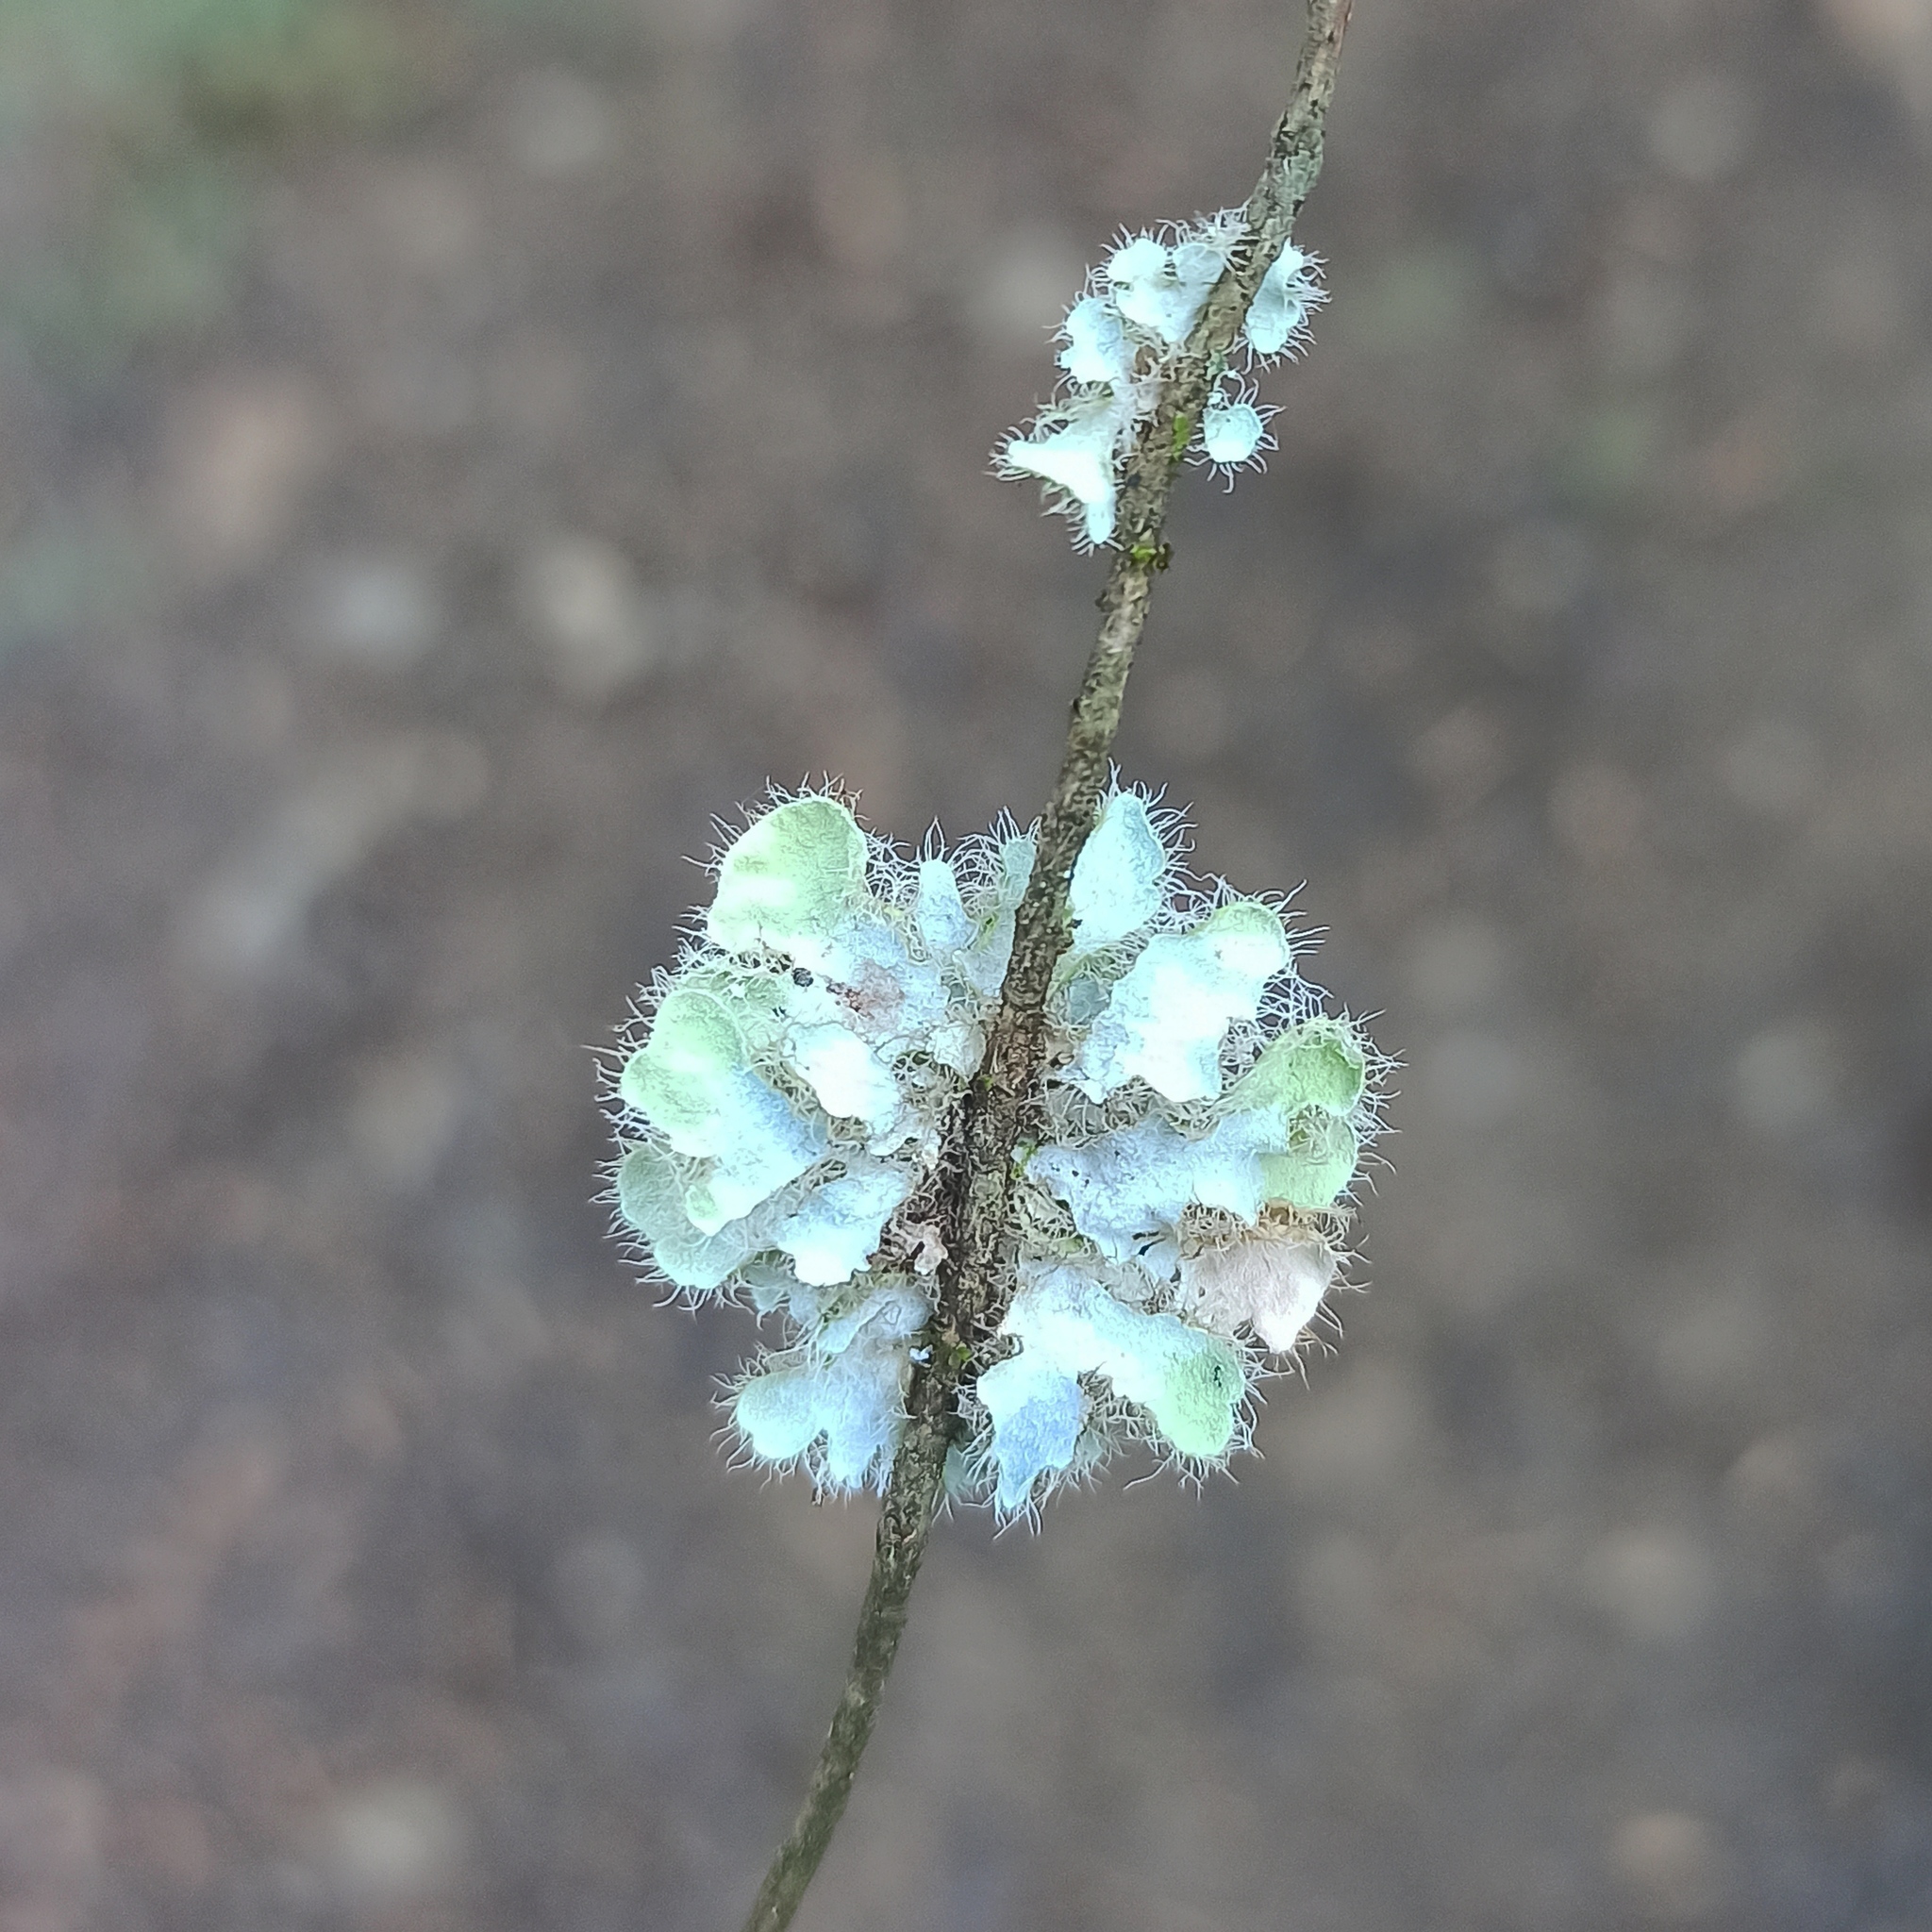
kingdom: Fungi
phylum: Ascomycota
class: Lecanoromycetes
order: Caliciales
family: Physciaceae
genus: Heterodermia
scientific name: Heterodermia sorediosa
